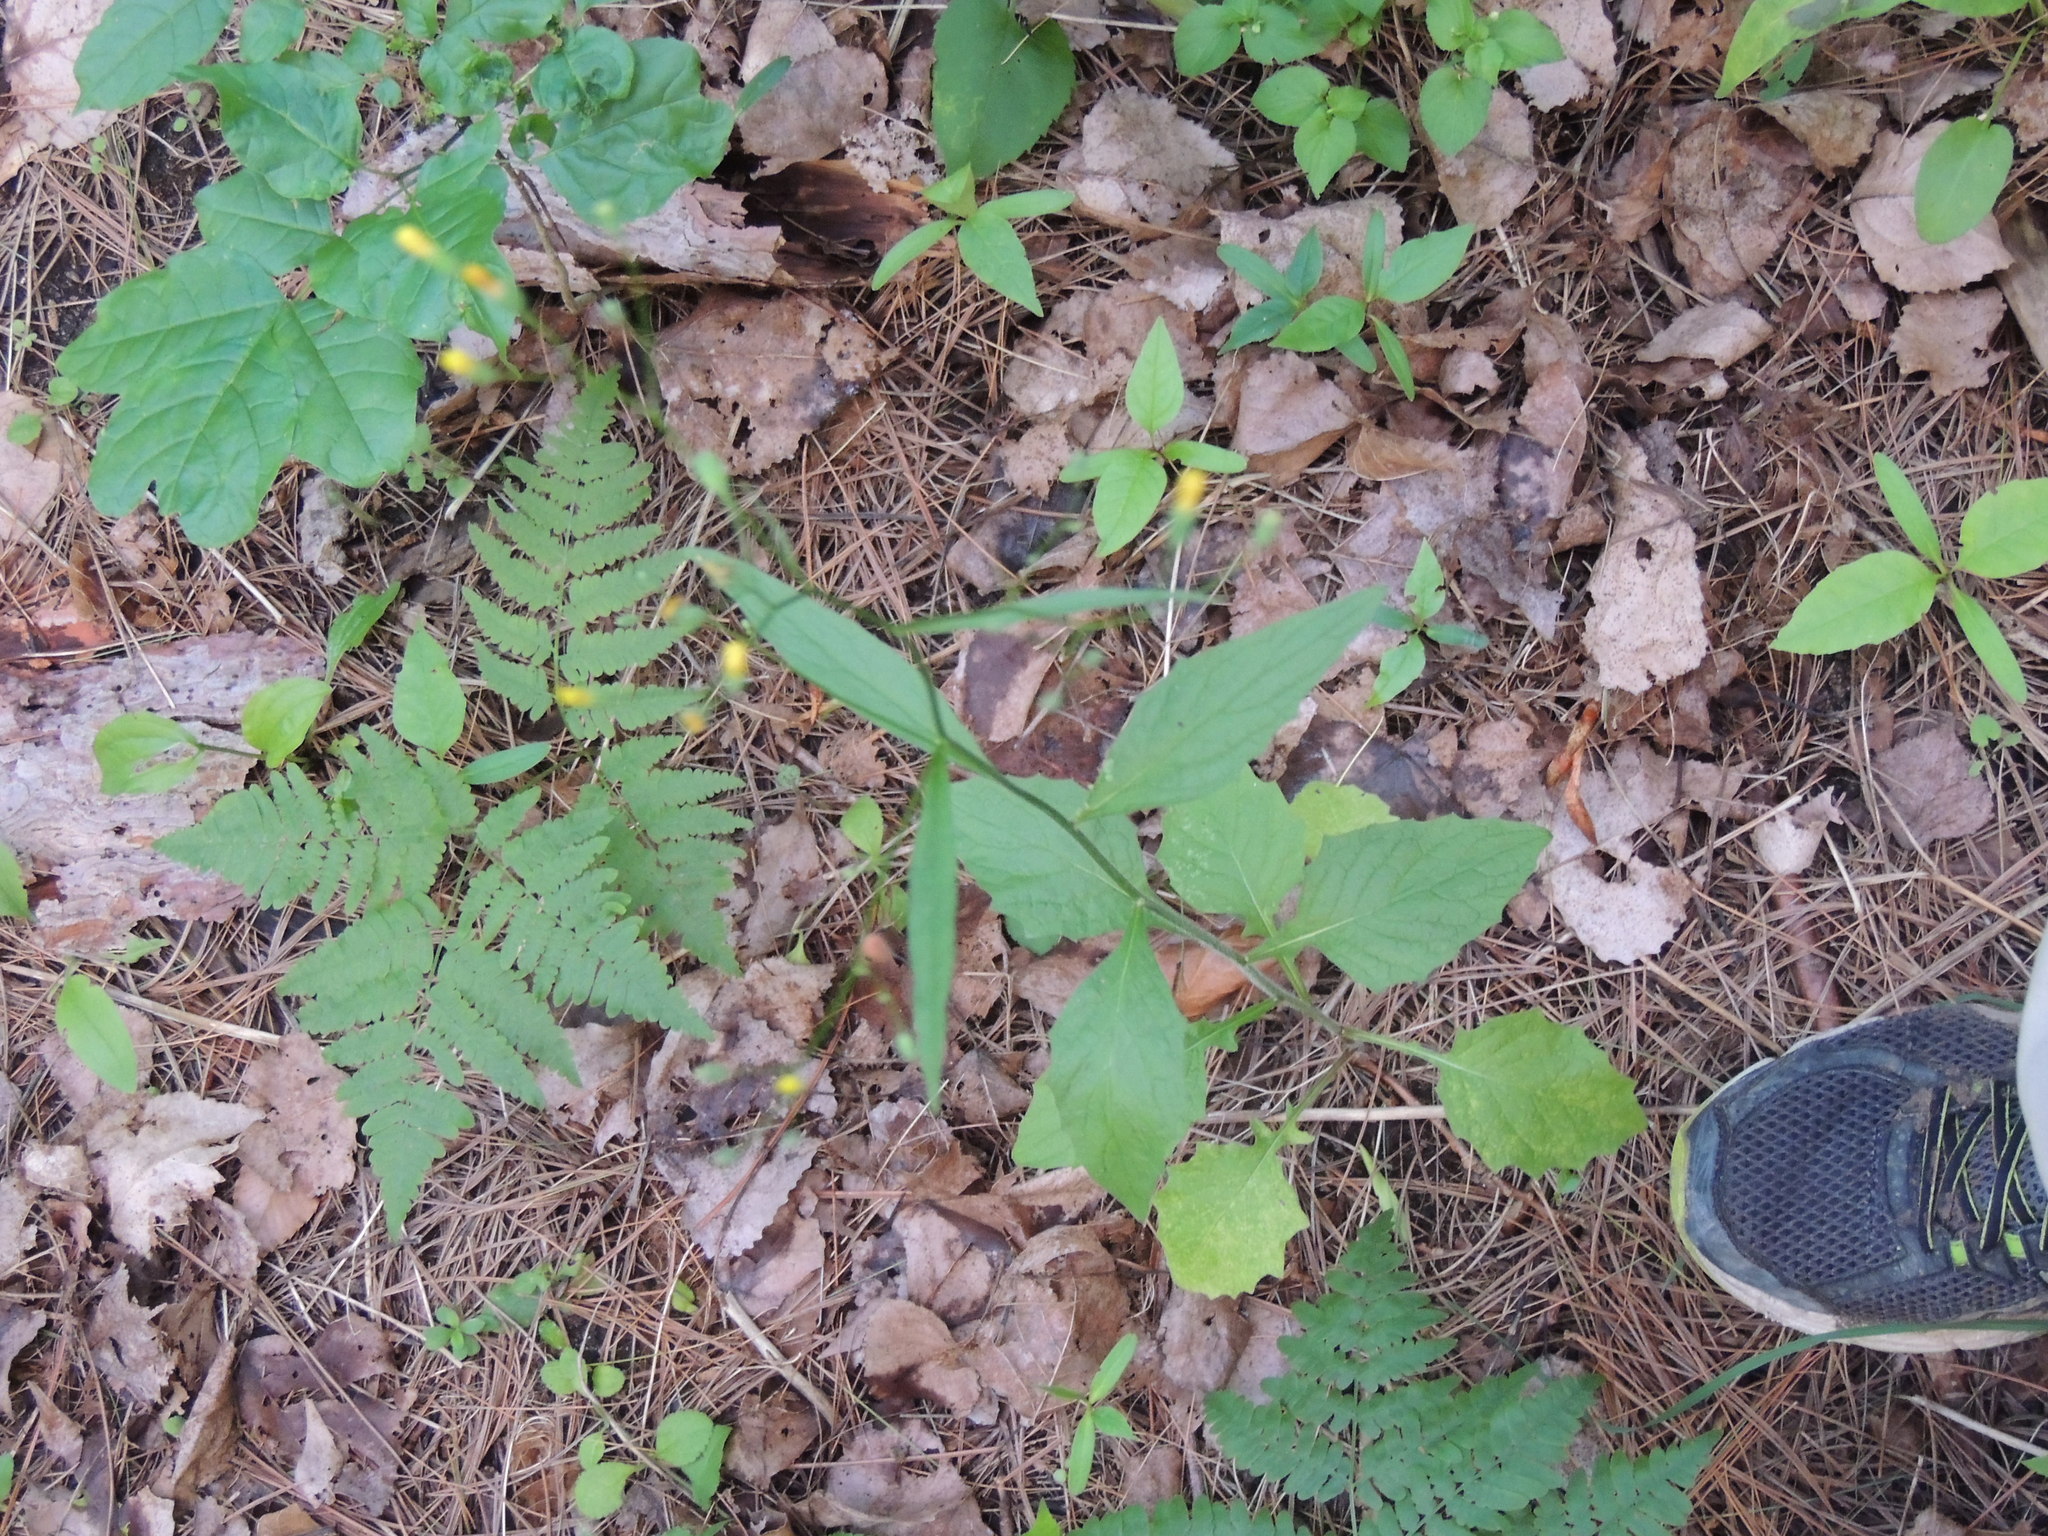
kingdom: Plantae
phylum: Tracheophyta
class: Magnoliopsida
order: Asterales
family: Asteraceae
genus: Lapsana
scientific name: Lapsana communis
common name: Nipplewort
